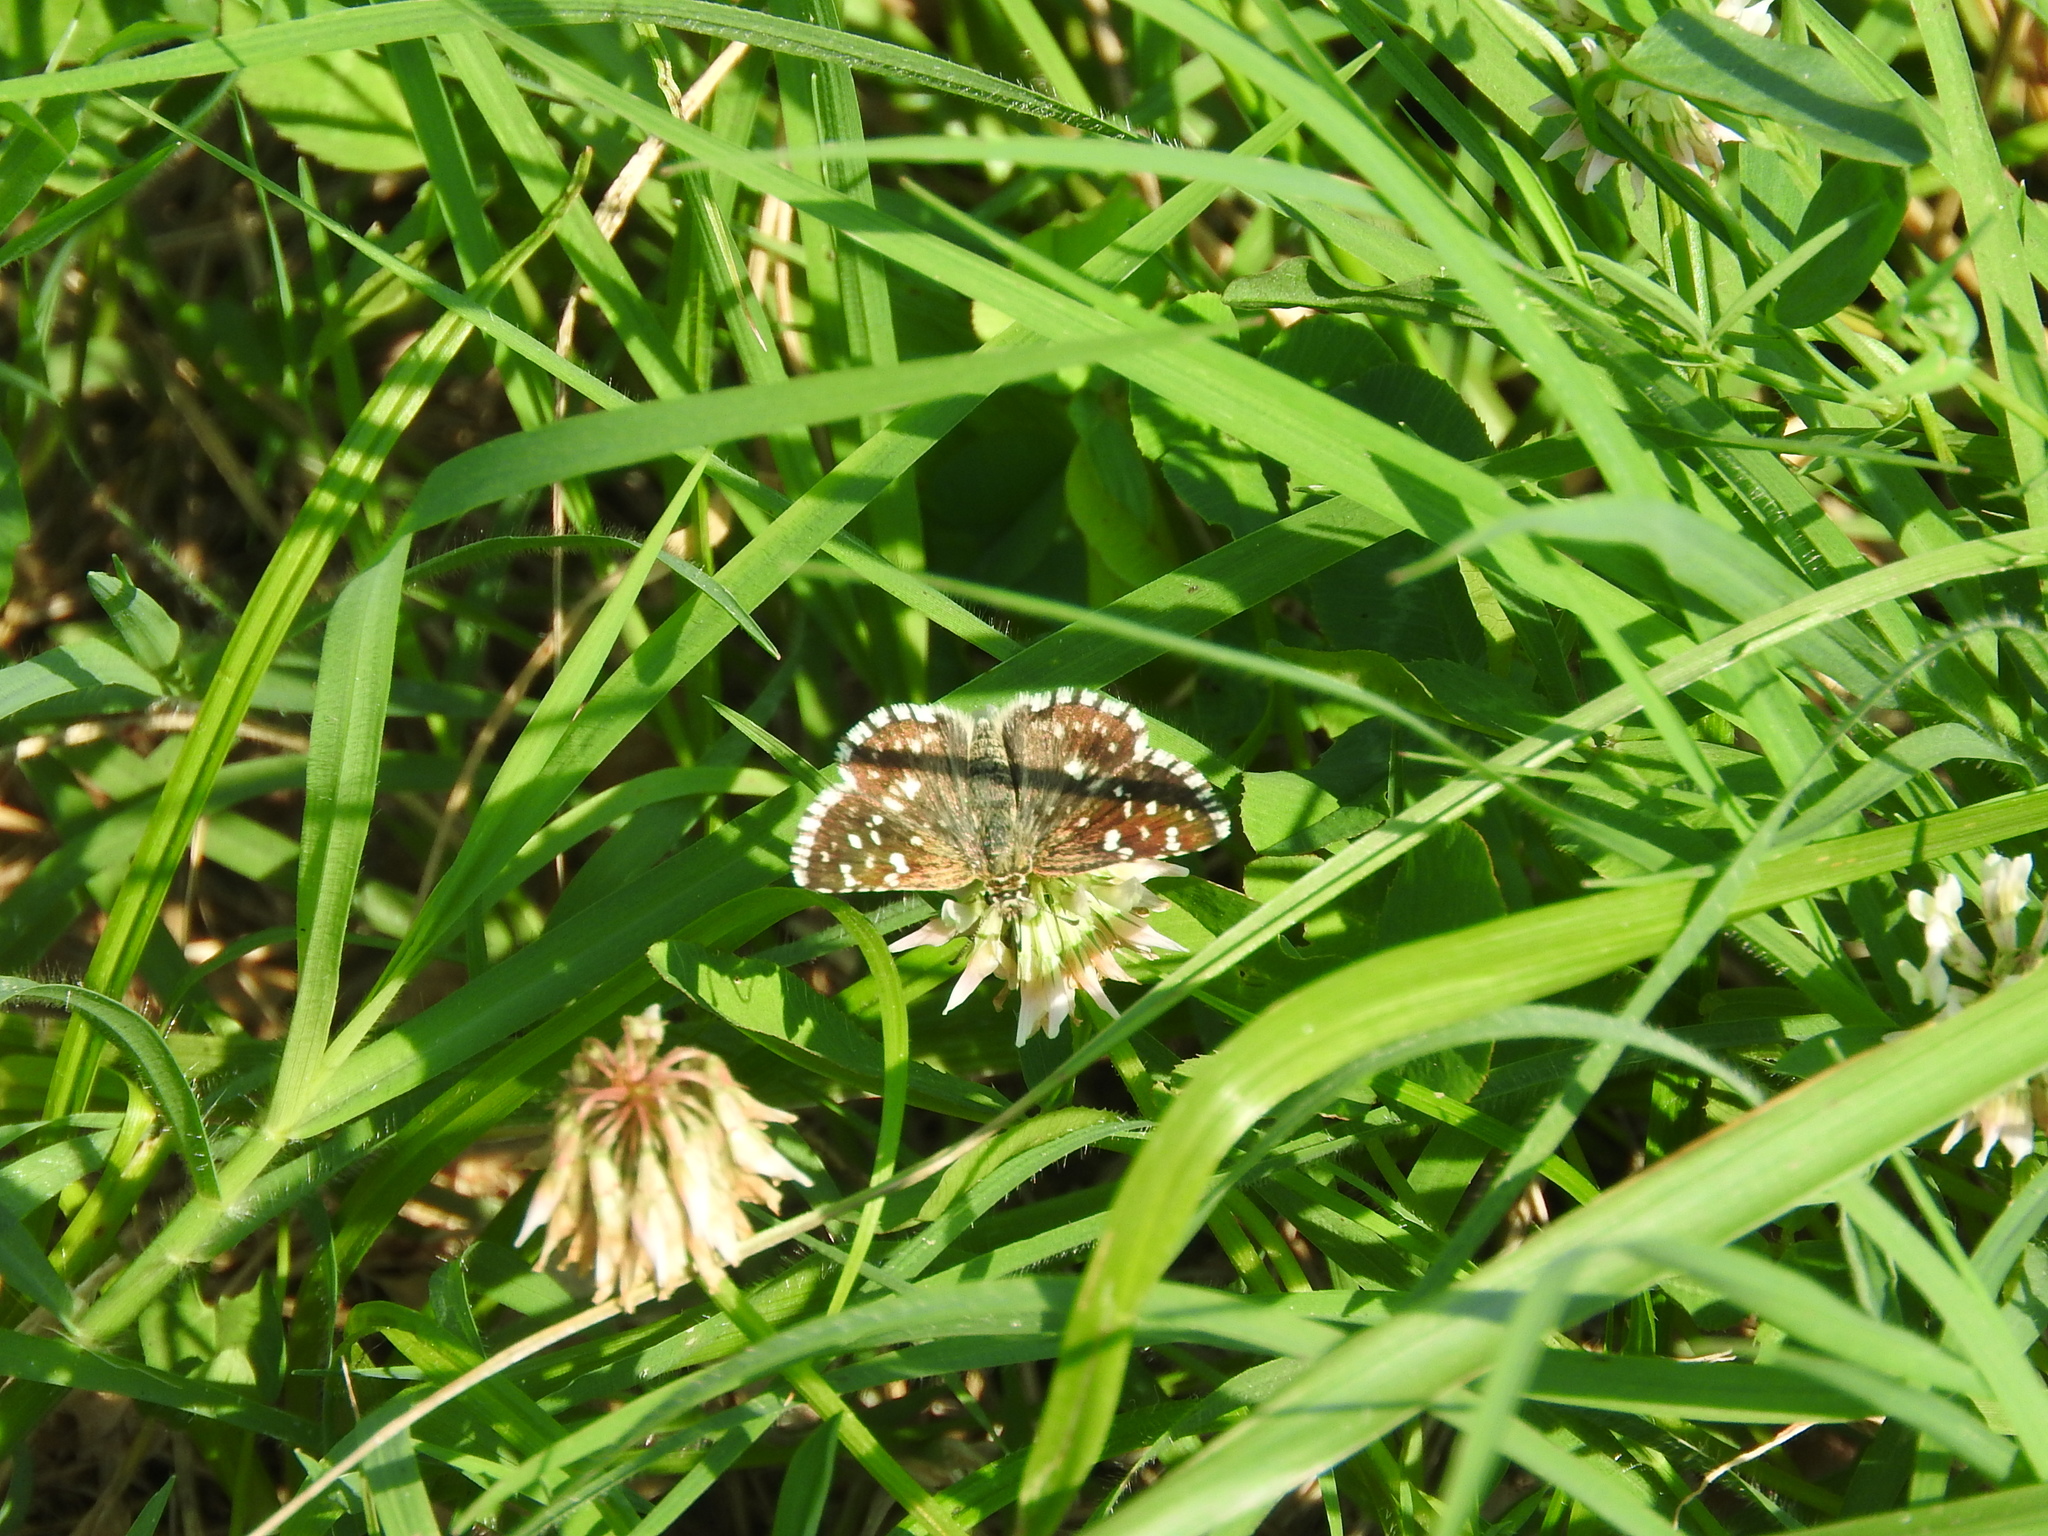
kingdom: Animalia
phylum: Arthropoda
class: Insecta
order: Lepidoptera
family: Hesperiidae
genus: Pyrgus
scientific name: Pyrgus malvoides
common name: Southern grizzled skipper
